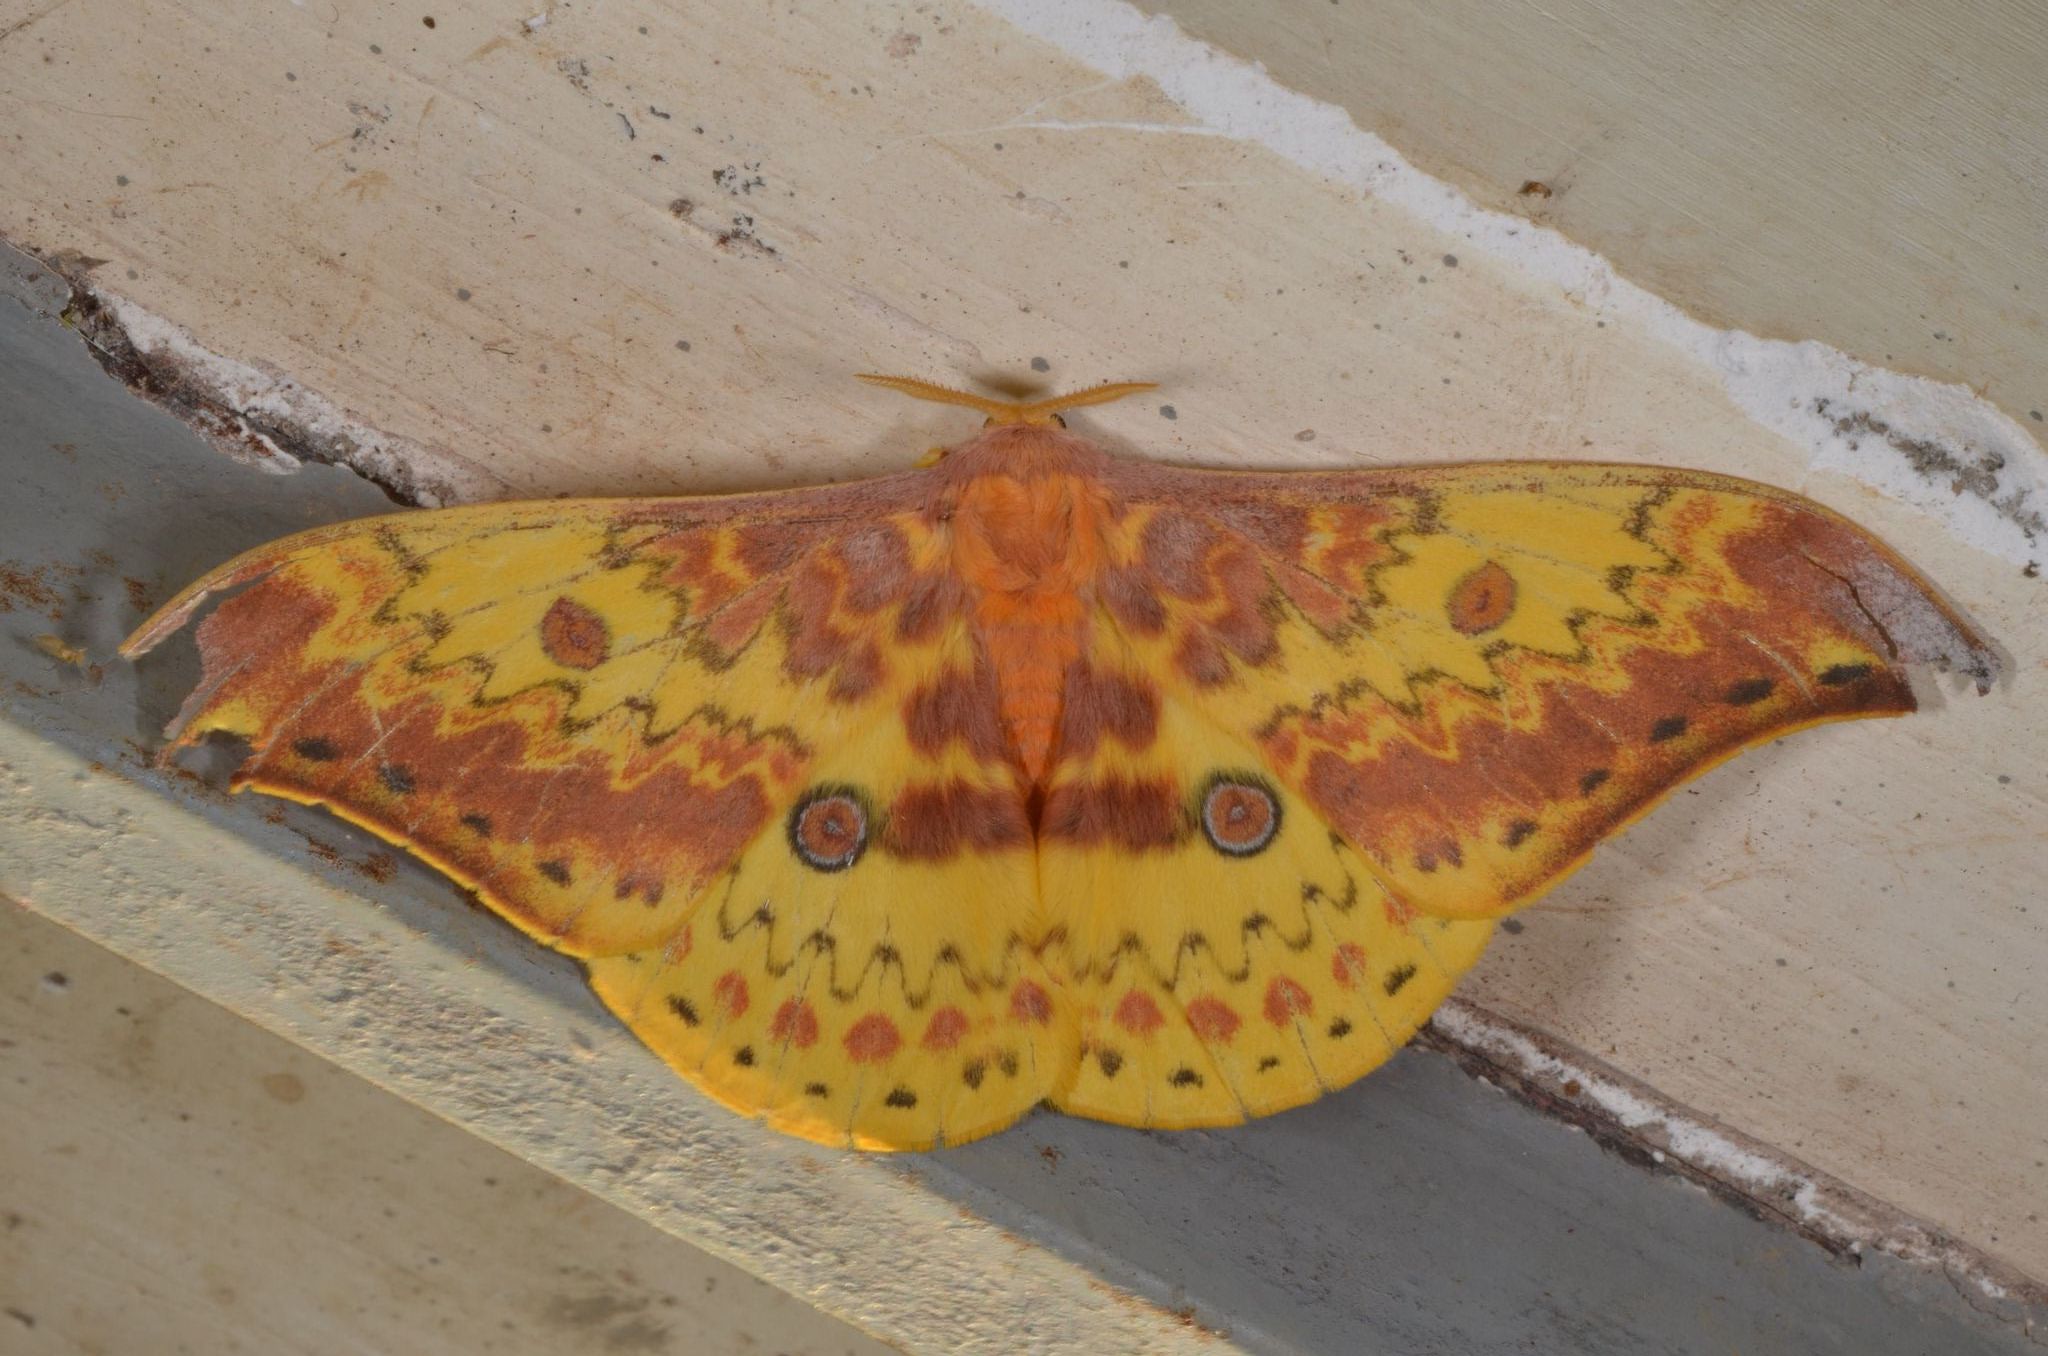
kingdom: Animalia
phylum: Arthropoda
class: Insecta
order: Lepidoptera
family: Saturniidae
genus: Lemaireia
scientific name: Lemaireia luteopeplus
